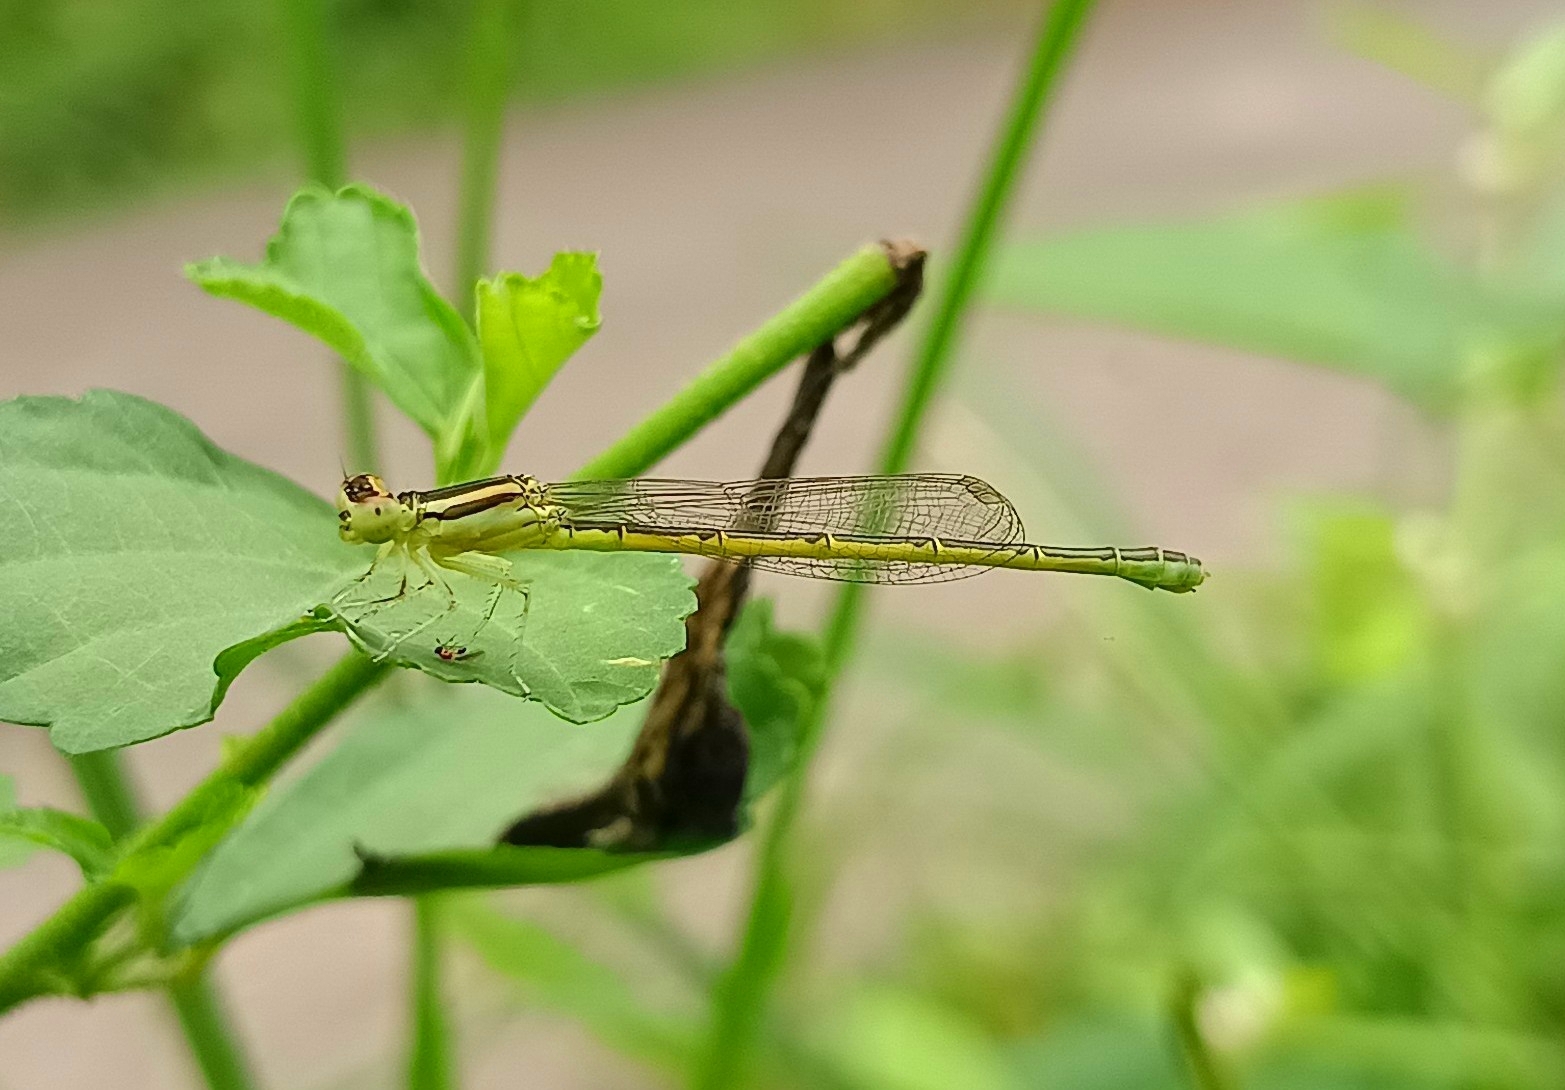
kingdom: Animalia
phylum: Arthropoda
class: Insecta
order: Odonata
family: Coenagrionidae
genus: Ischnura
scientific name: Ischnura rubilio
